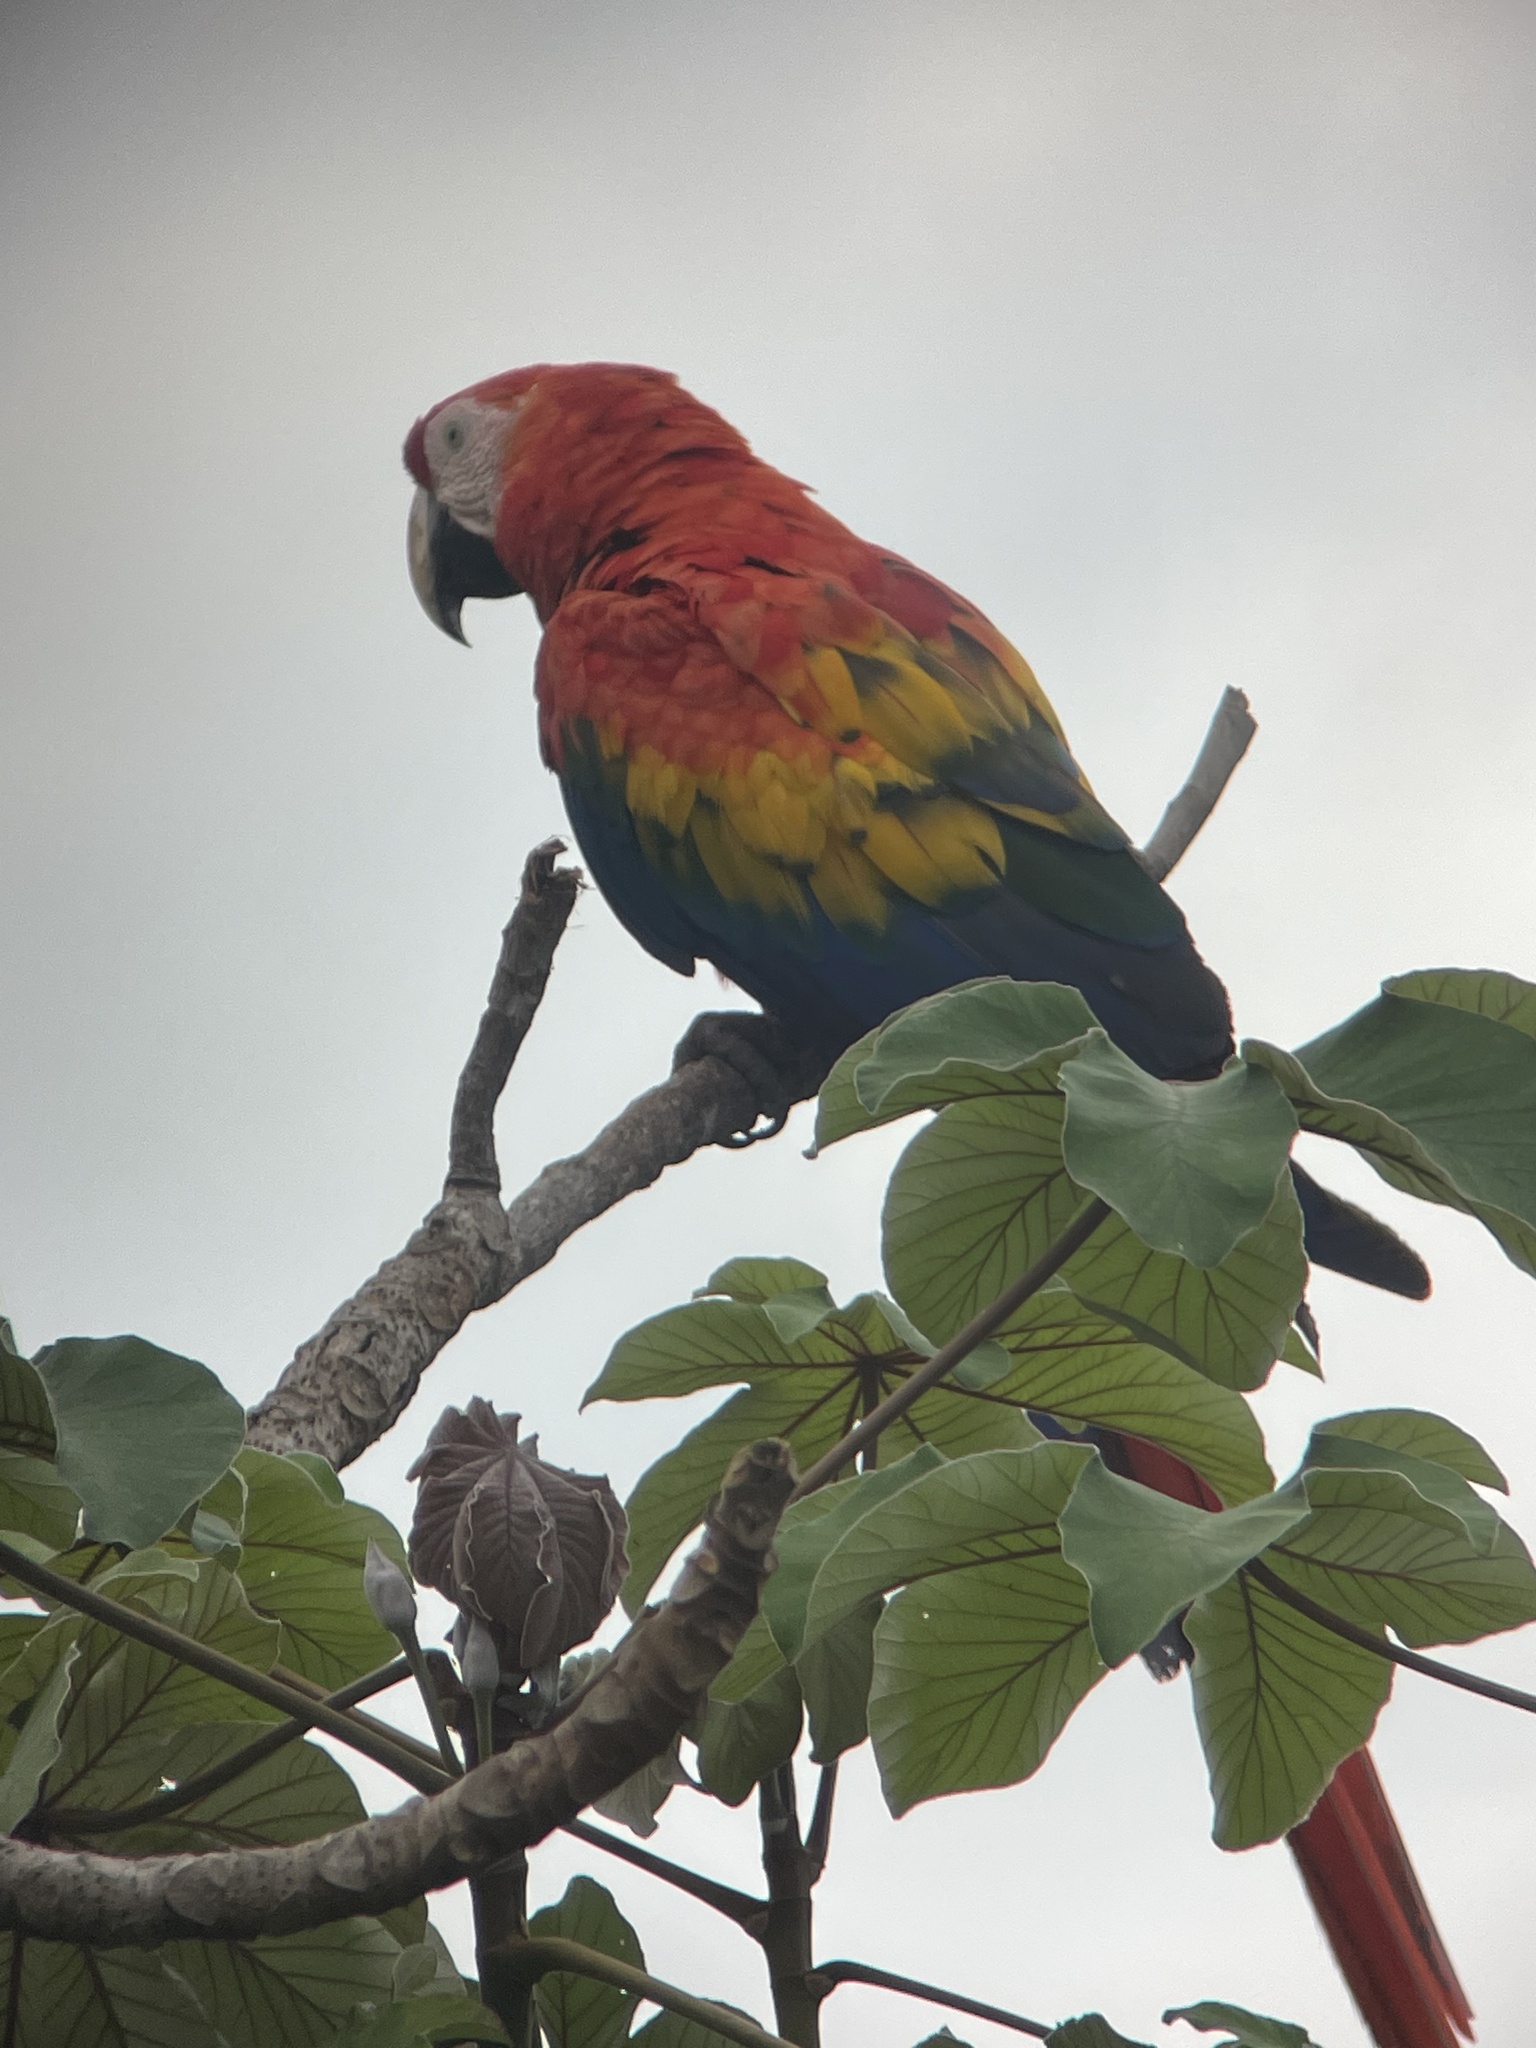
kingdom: Animalia
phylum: Chordata
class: Aves
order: Psittaciformes
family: Psittacidae
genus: Ara
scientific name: Ara macao
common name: Scarlet macaw
